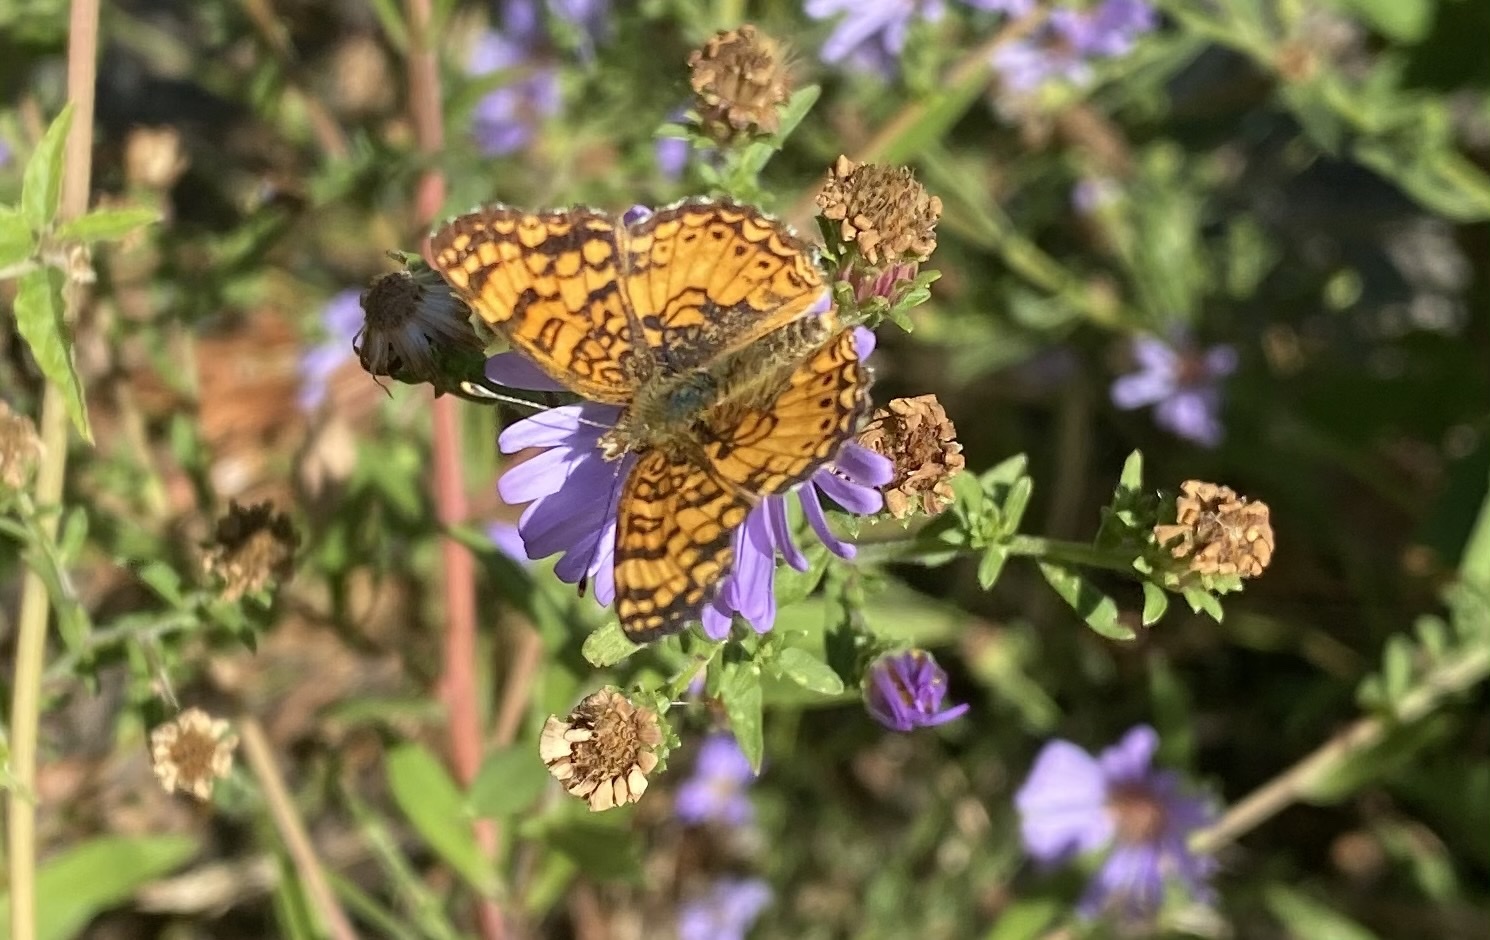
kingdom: Animalia
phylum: Arthropoda
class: Insecta
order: Lepidoptera
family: Nymphalidae
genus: Eresia
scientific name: Eresia aveyrona
